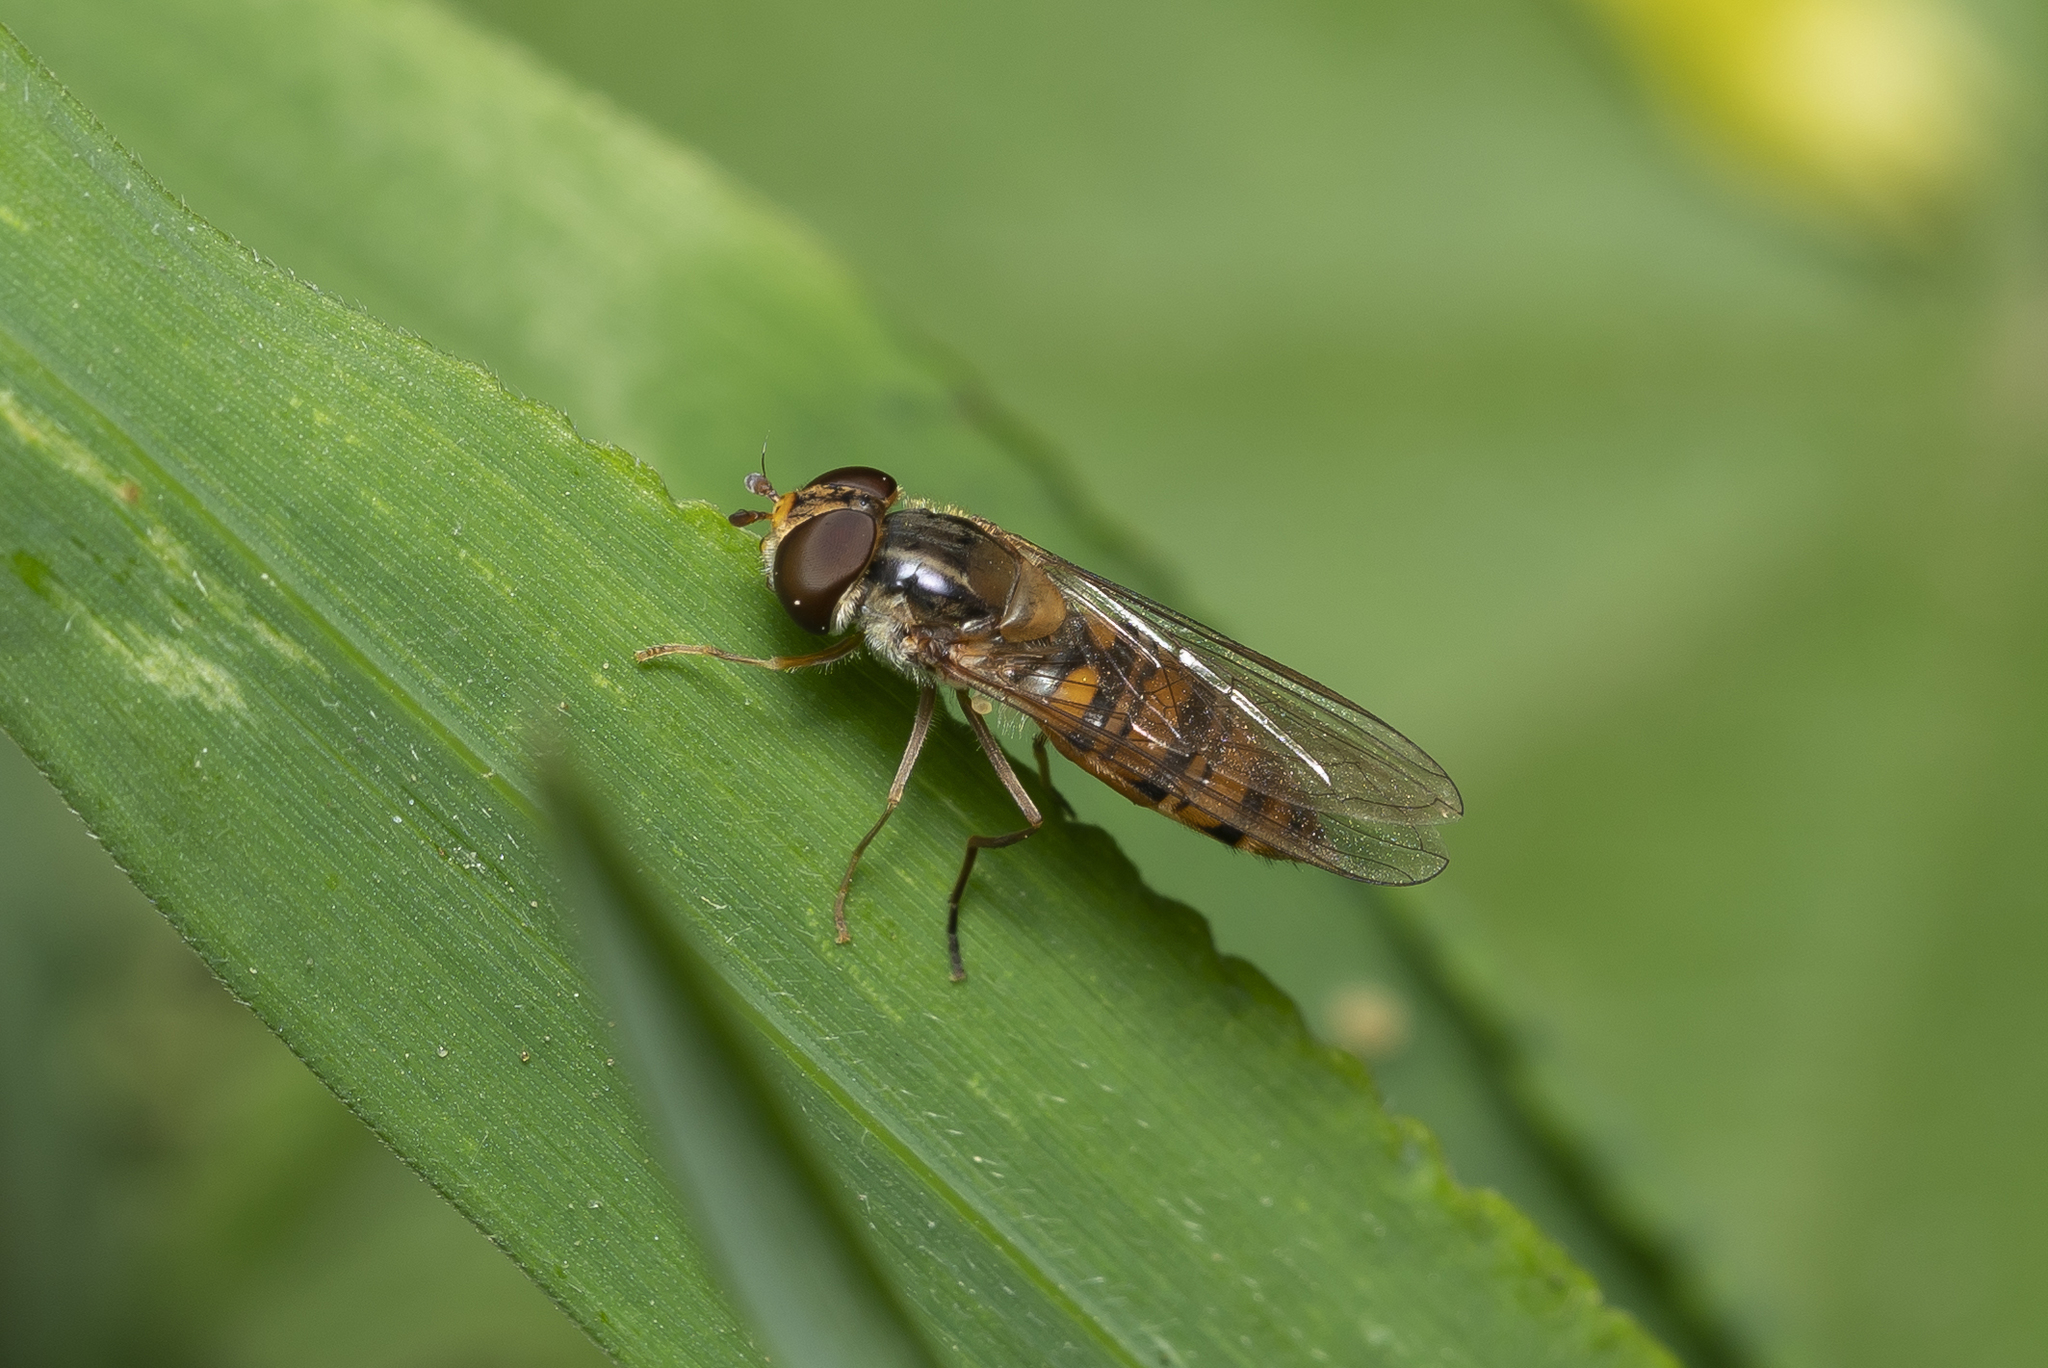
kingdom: Animalia
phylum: Arthropoda
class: Insecta
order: Diptera
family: Syrphidae
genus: Episyrphus
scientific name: Episyrphus balteatus
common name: Marmalade hoverfly
